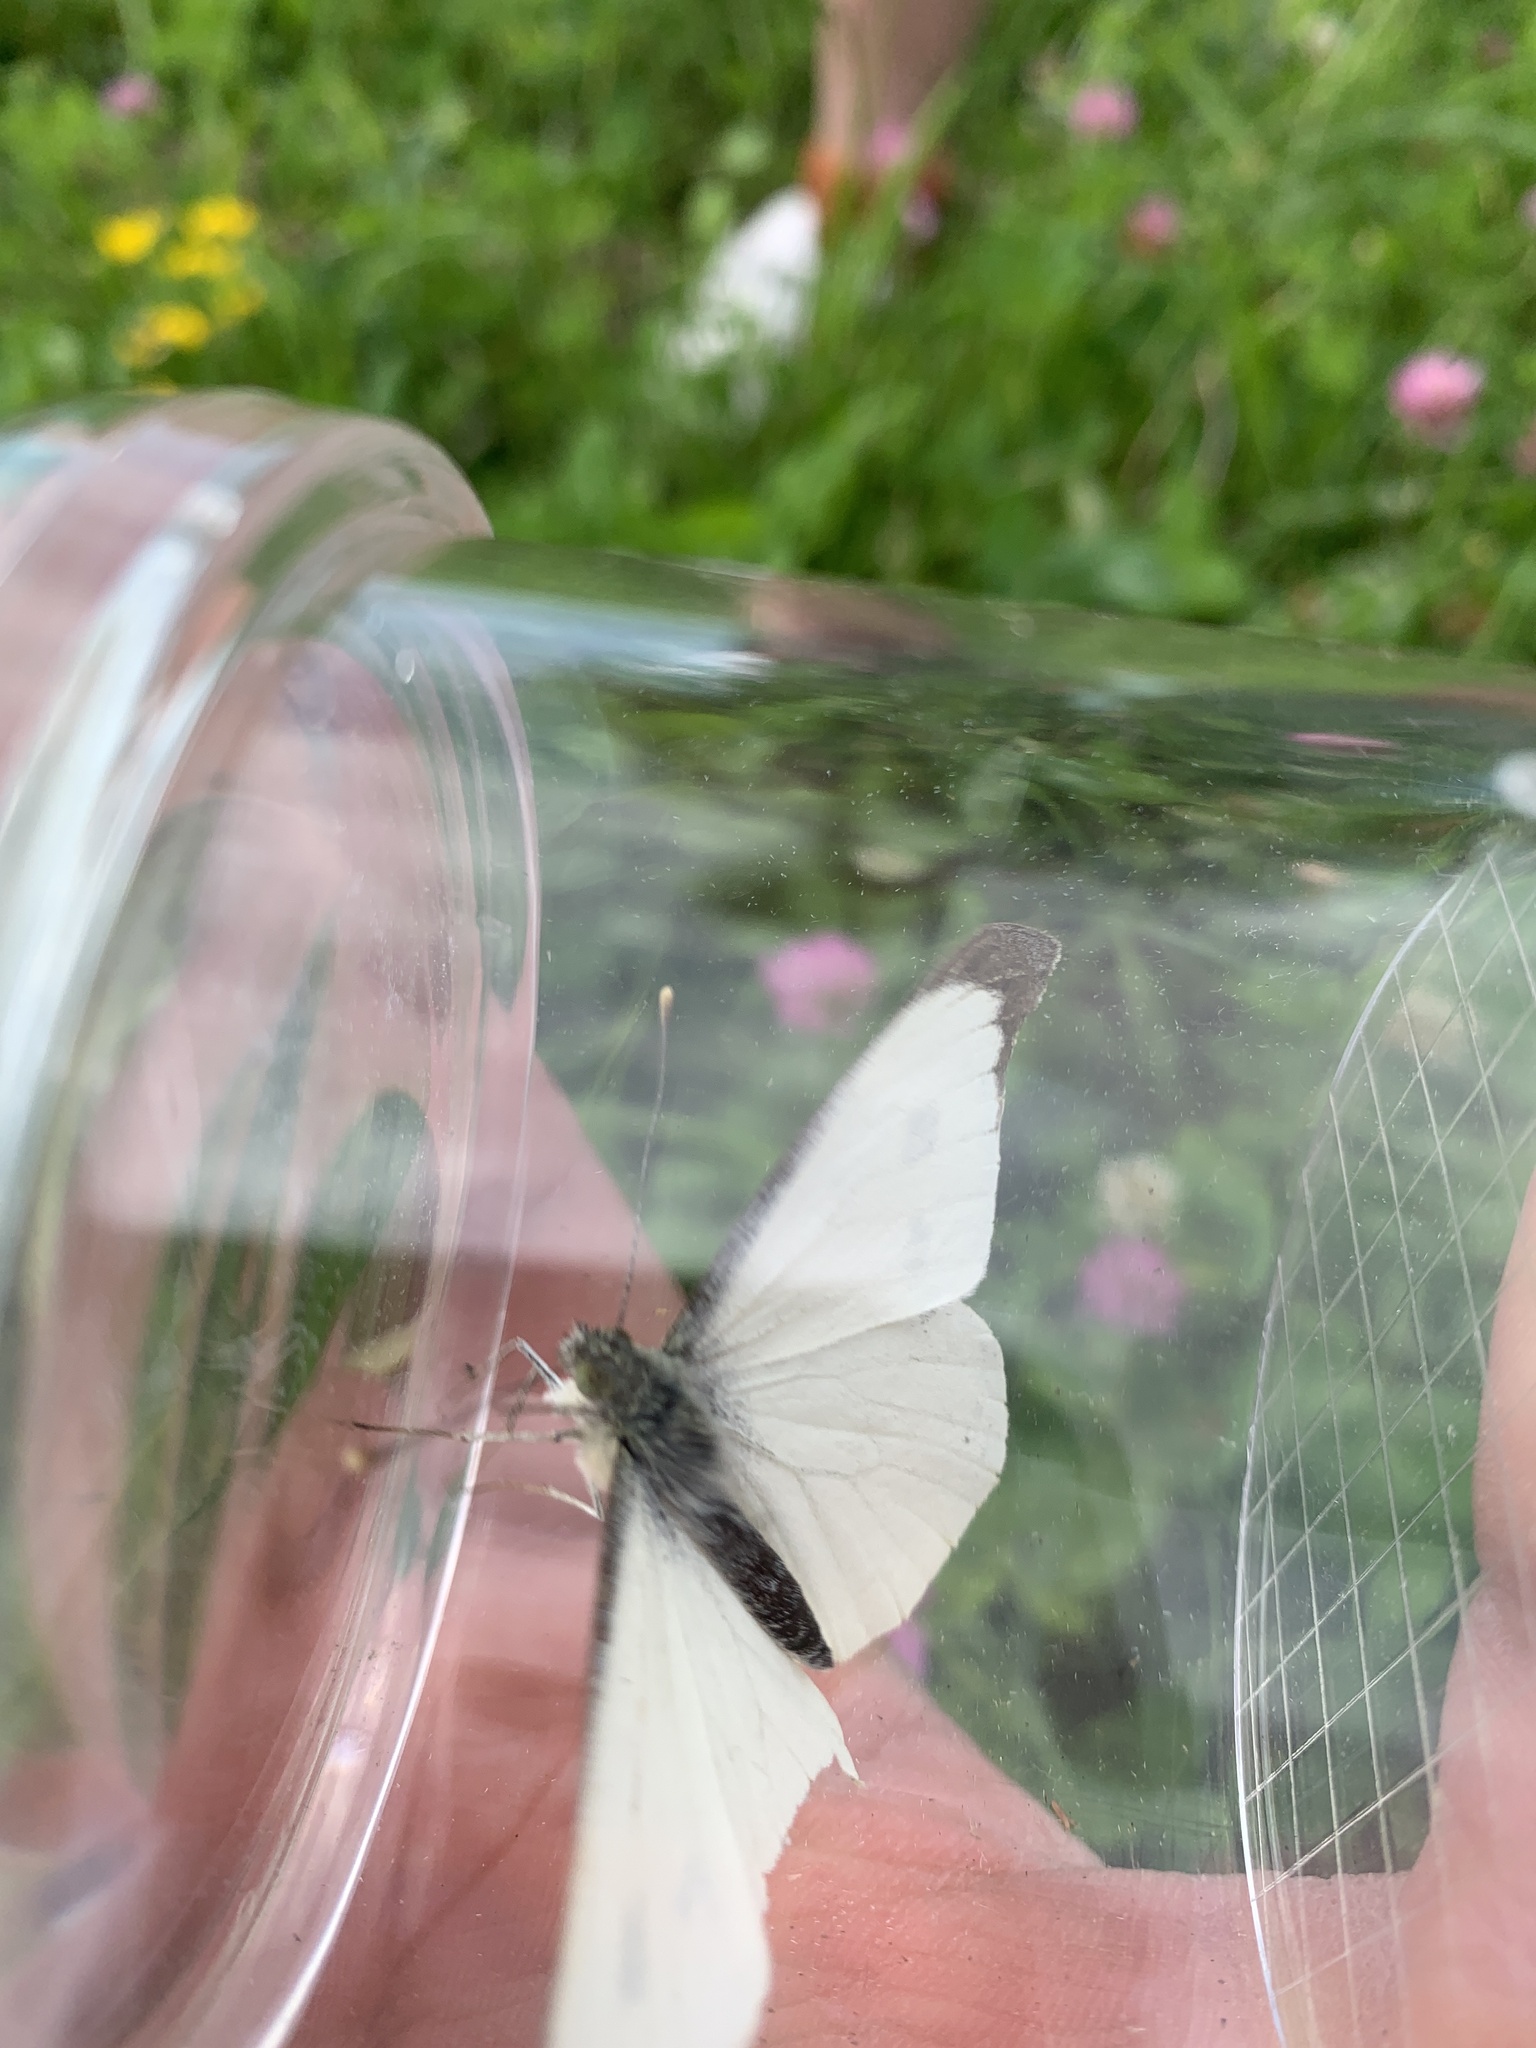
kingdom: Animalia
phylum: Arthropoda
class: Insecta
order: Lepidoptera
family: Pieridae
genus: Pieris
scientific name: Pieris brassicae
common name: Large white
